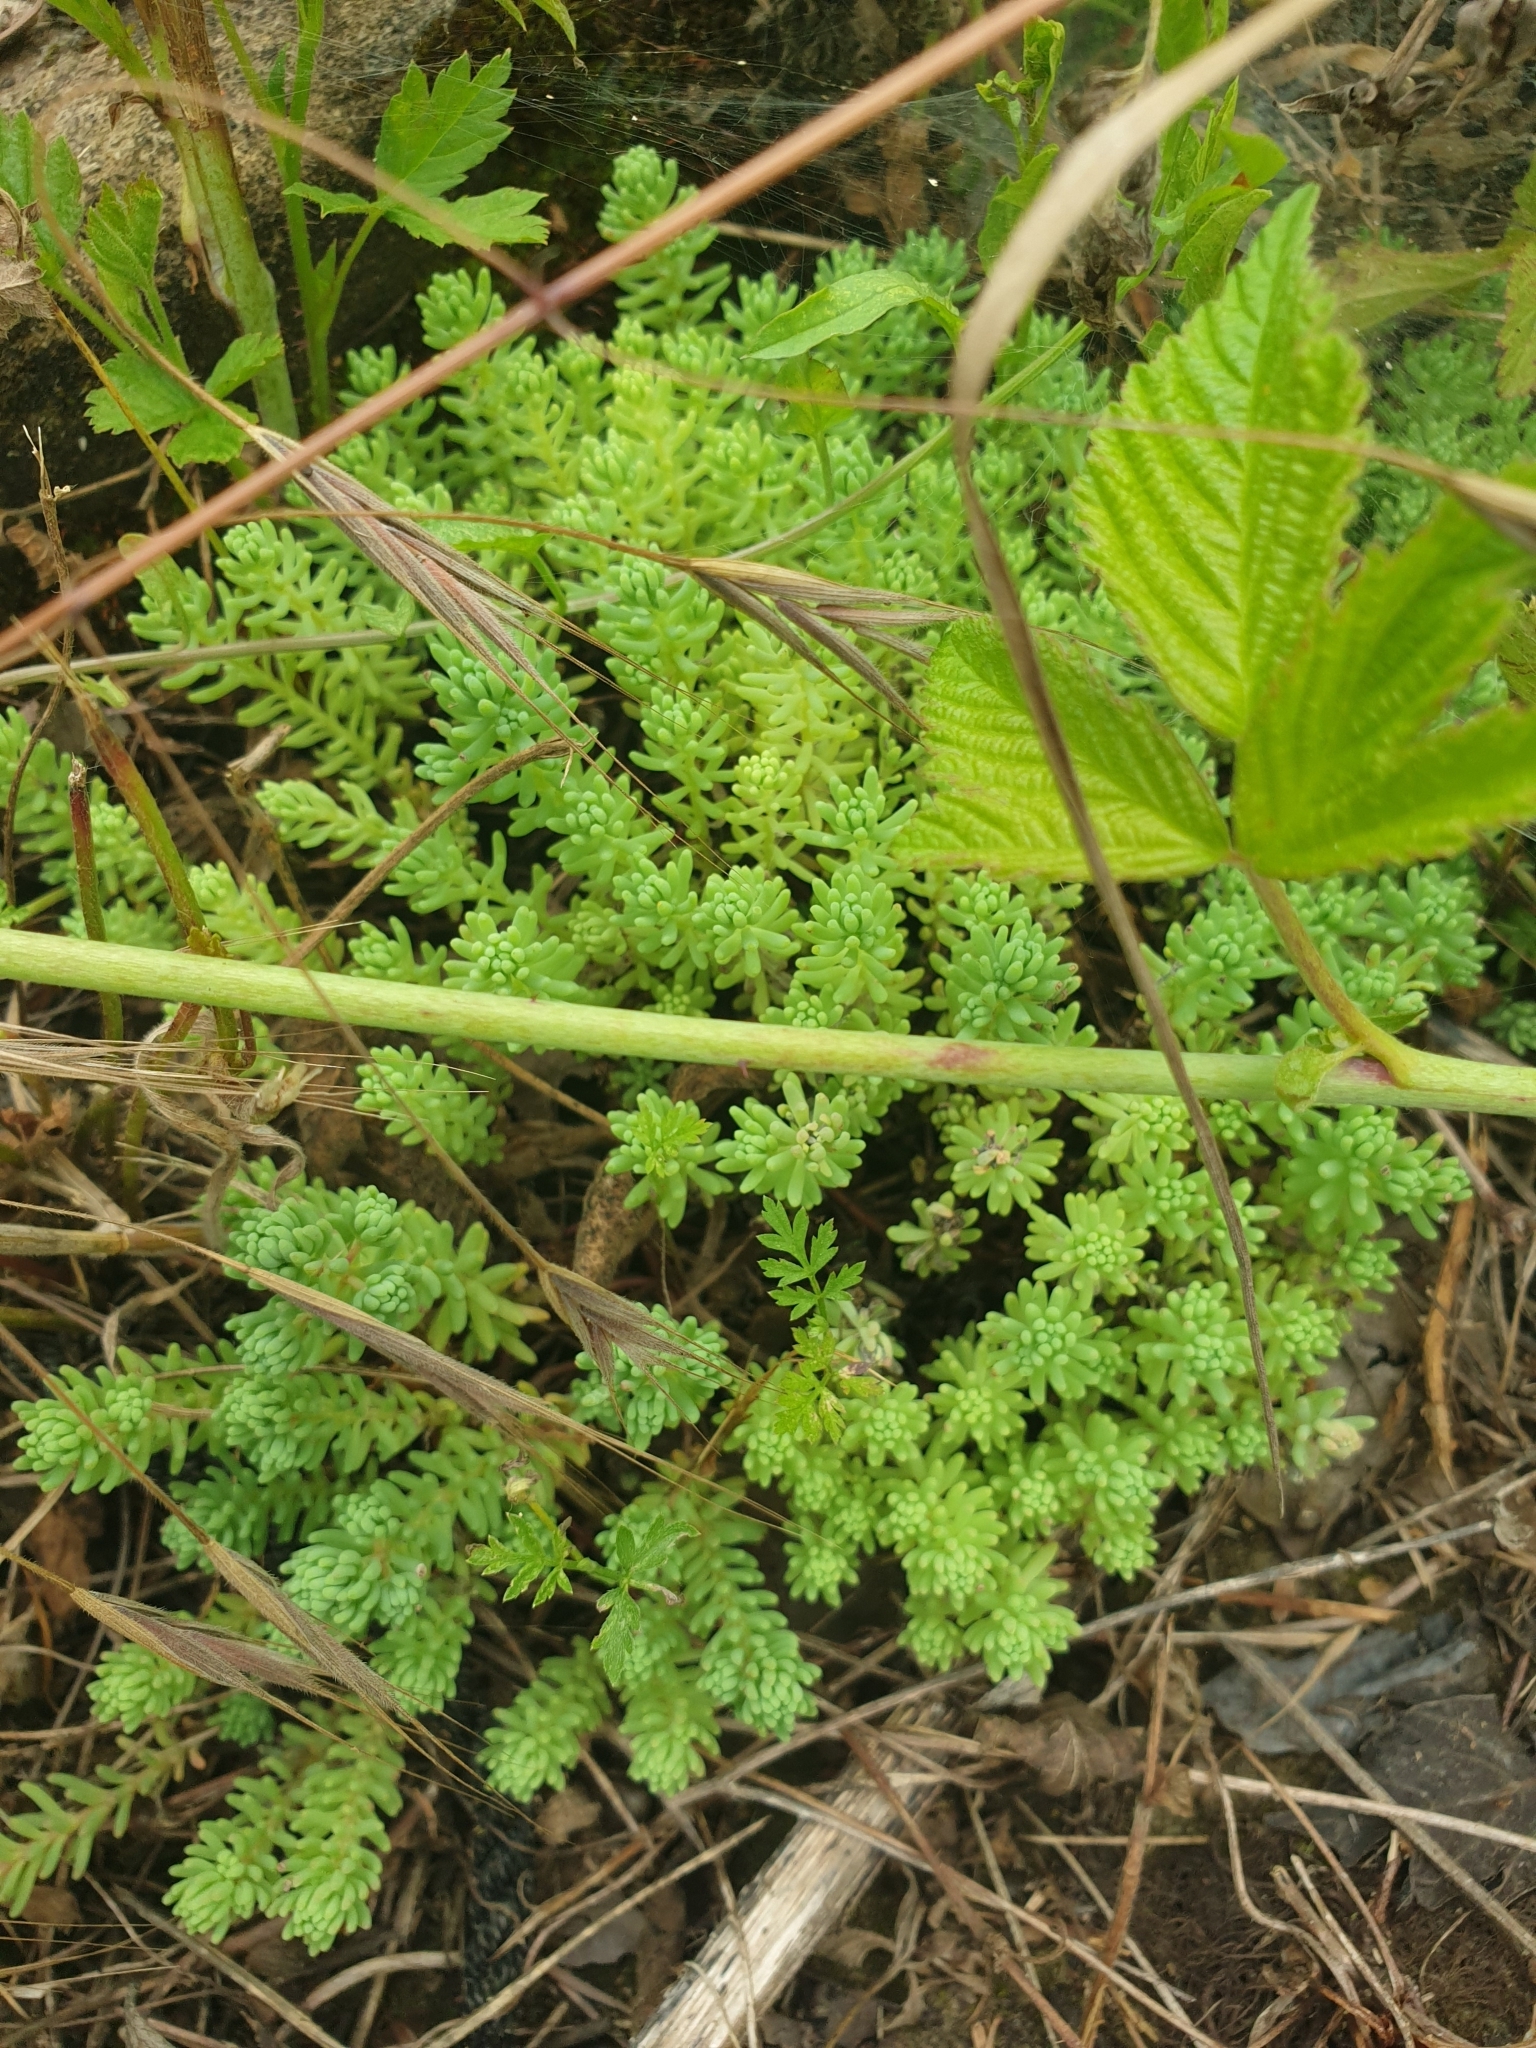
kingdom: Plantae
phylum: Tracheophyta
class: Magnoliopsida
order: Saxifragales
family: Crassulaceae
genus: Sedum
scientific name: Sedum pallidum
